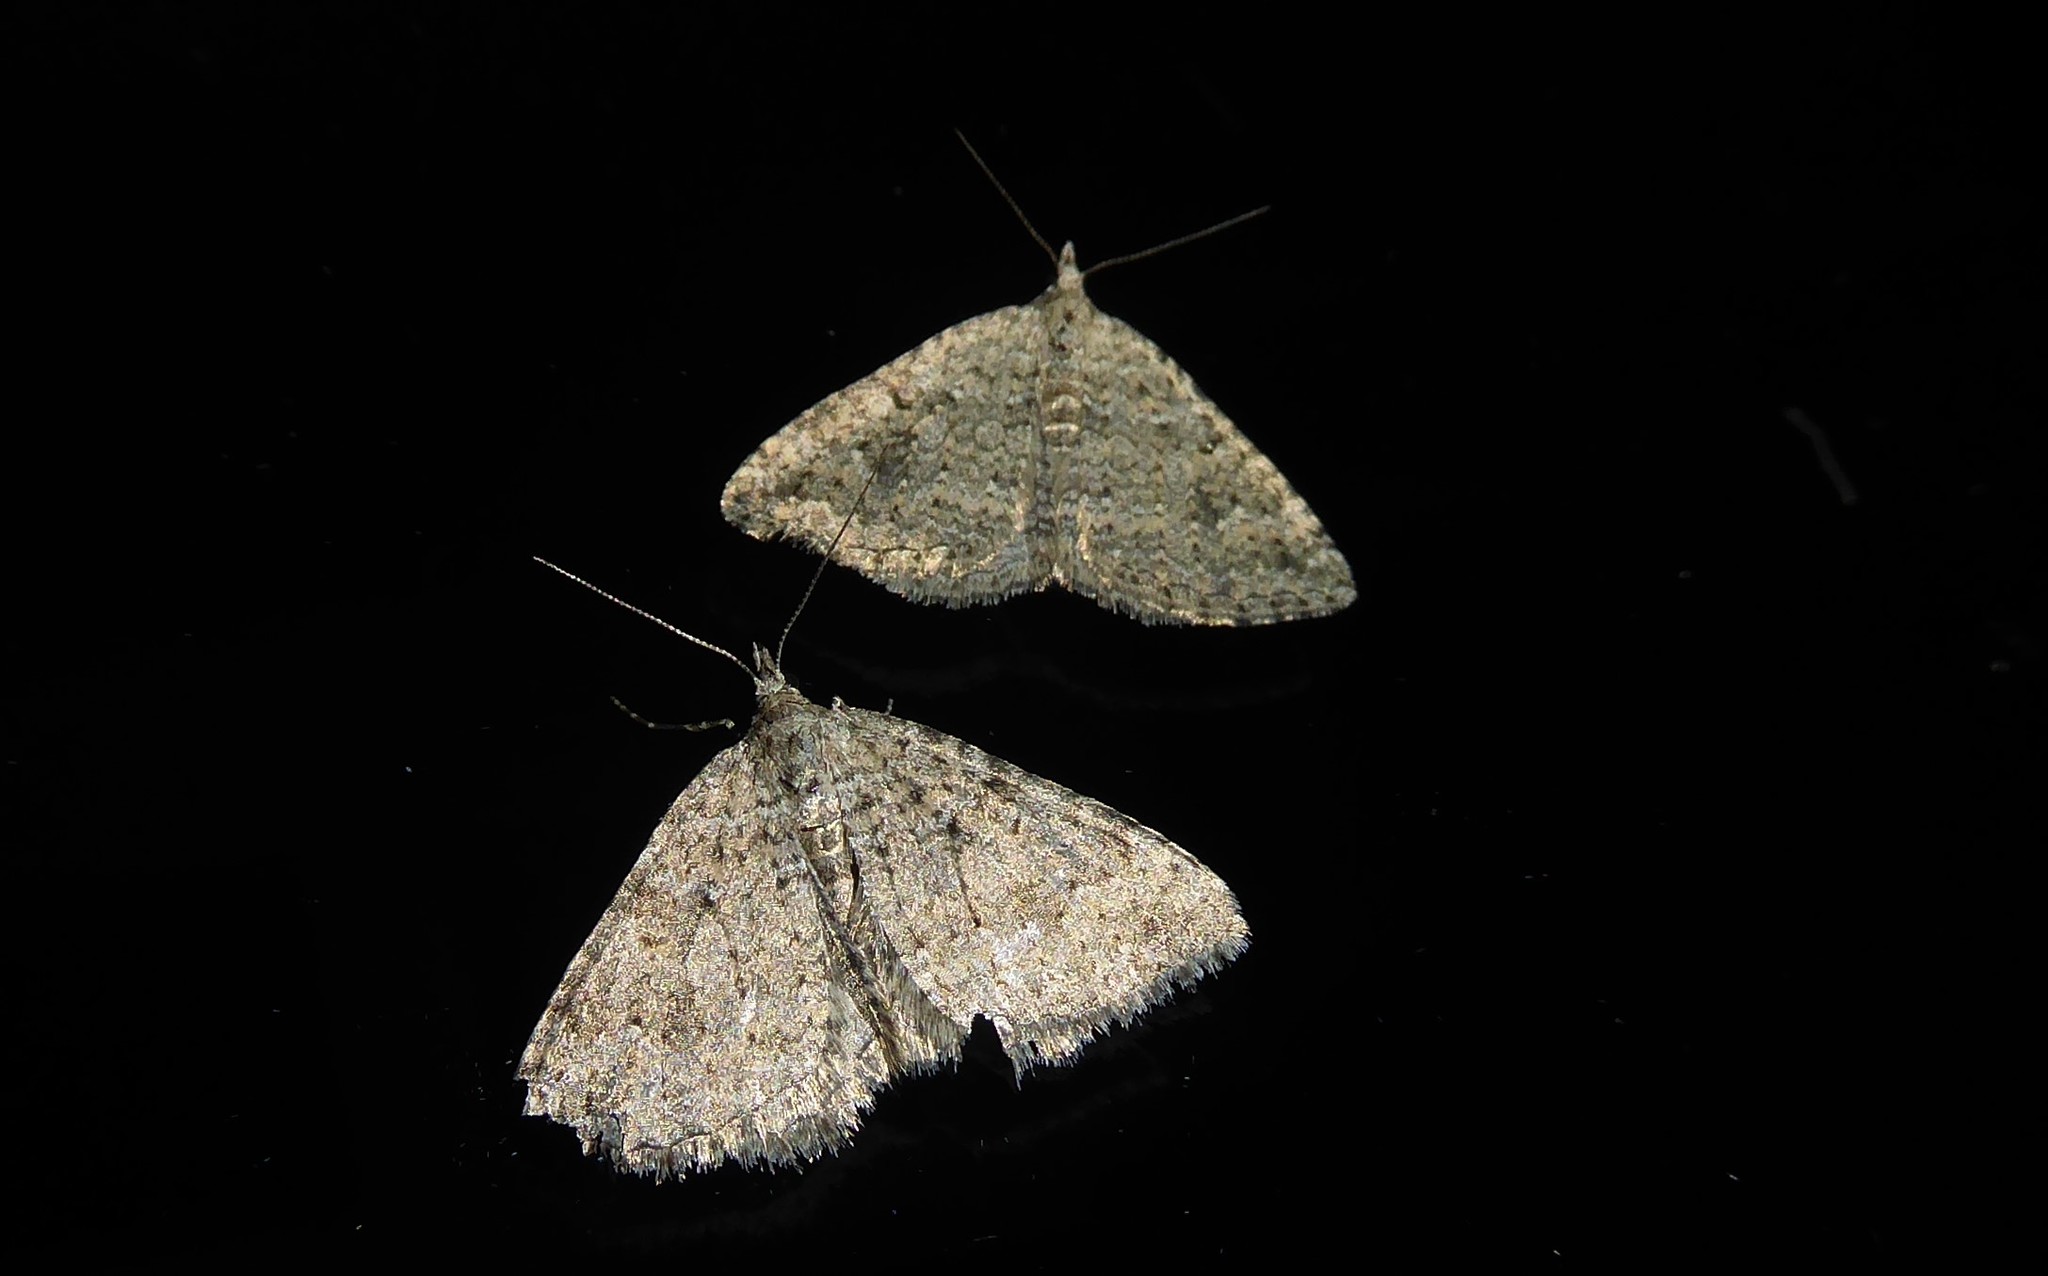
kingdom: Animalia
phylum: Arthropoda
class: Insecta
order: Lepidoptera
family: Geometridae
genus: Helastia
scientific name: Helastia corcularia
